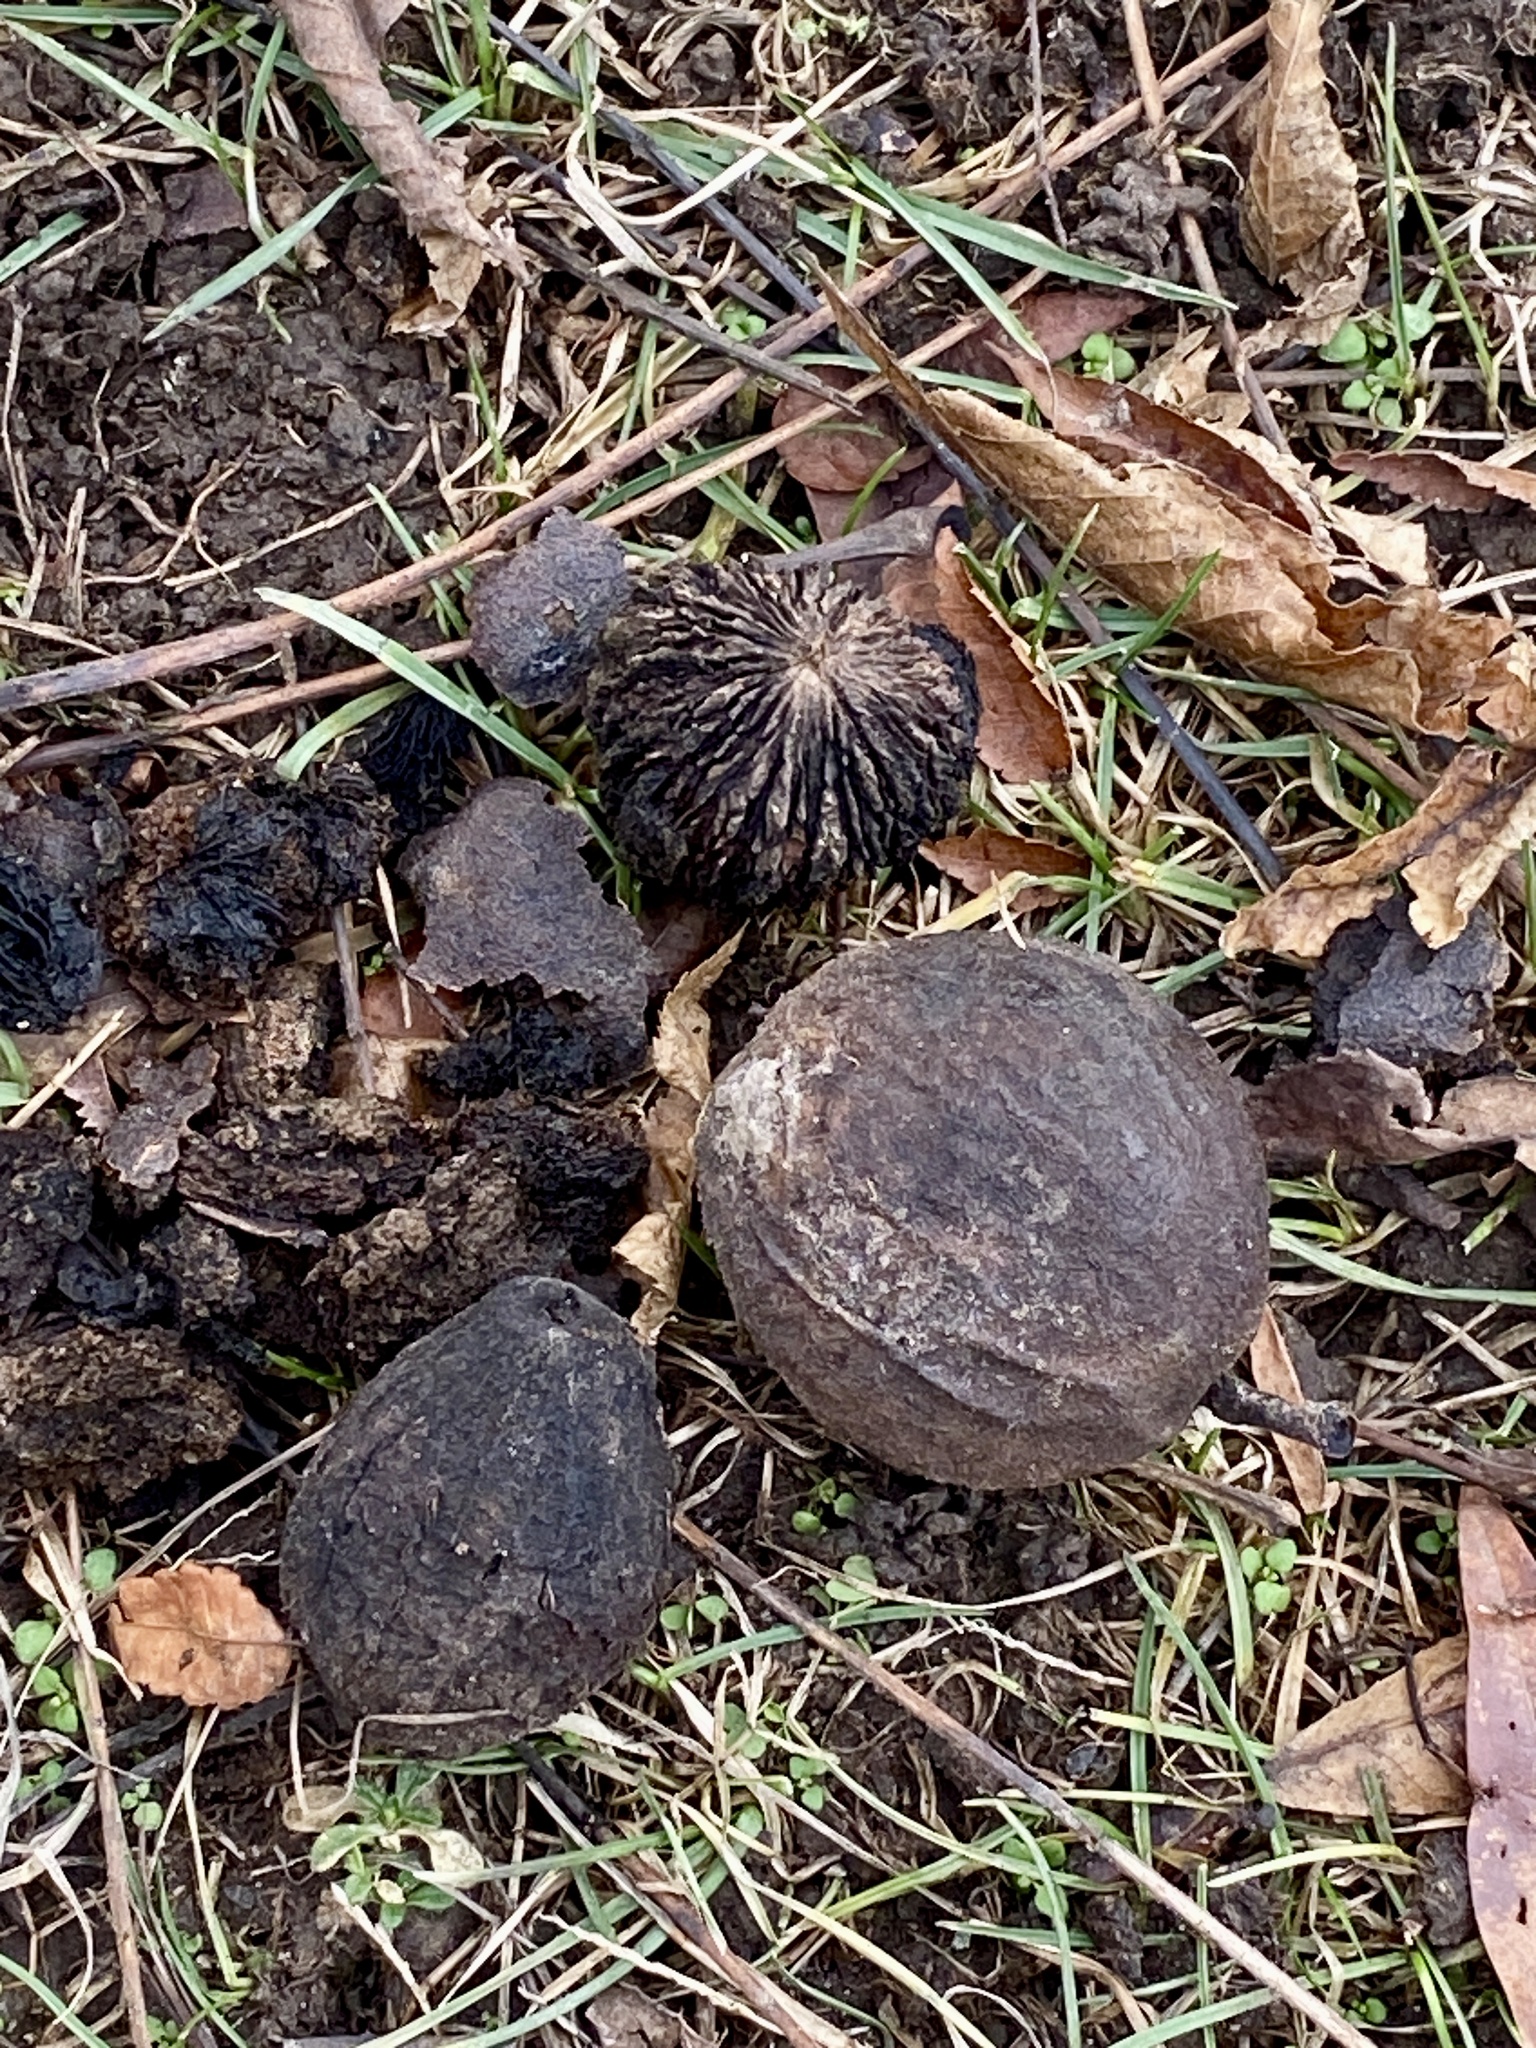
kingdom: Plantae
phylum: Tracheophyta
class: Magnoliopsida
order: Fagales
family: Juglandaceae
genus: Juglans
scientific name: Juglans nigra
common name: Black walnut
